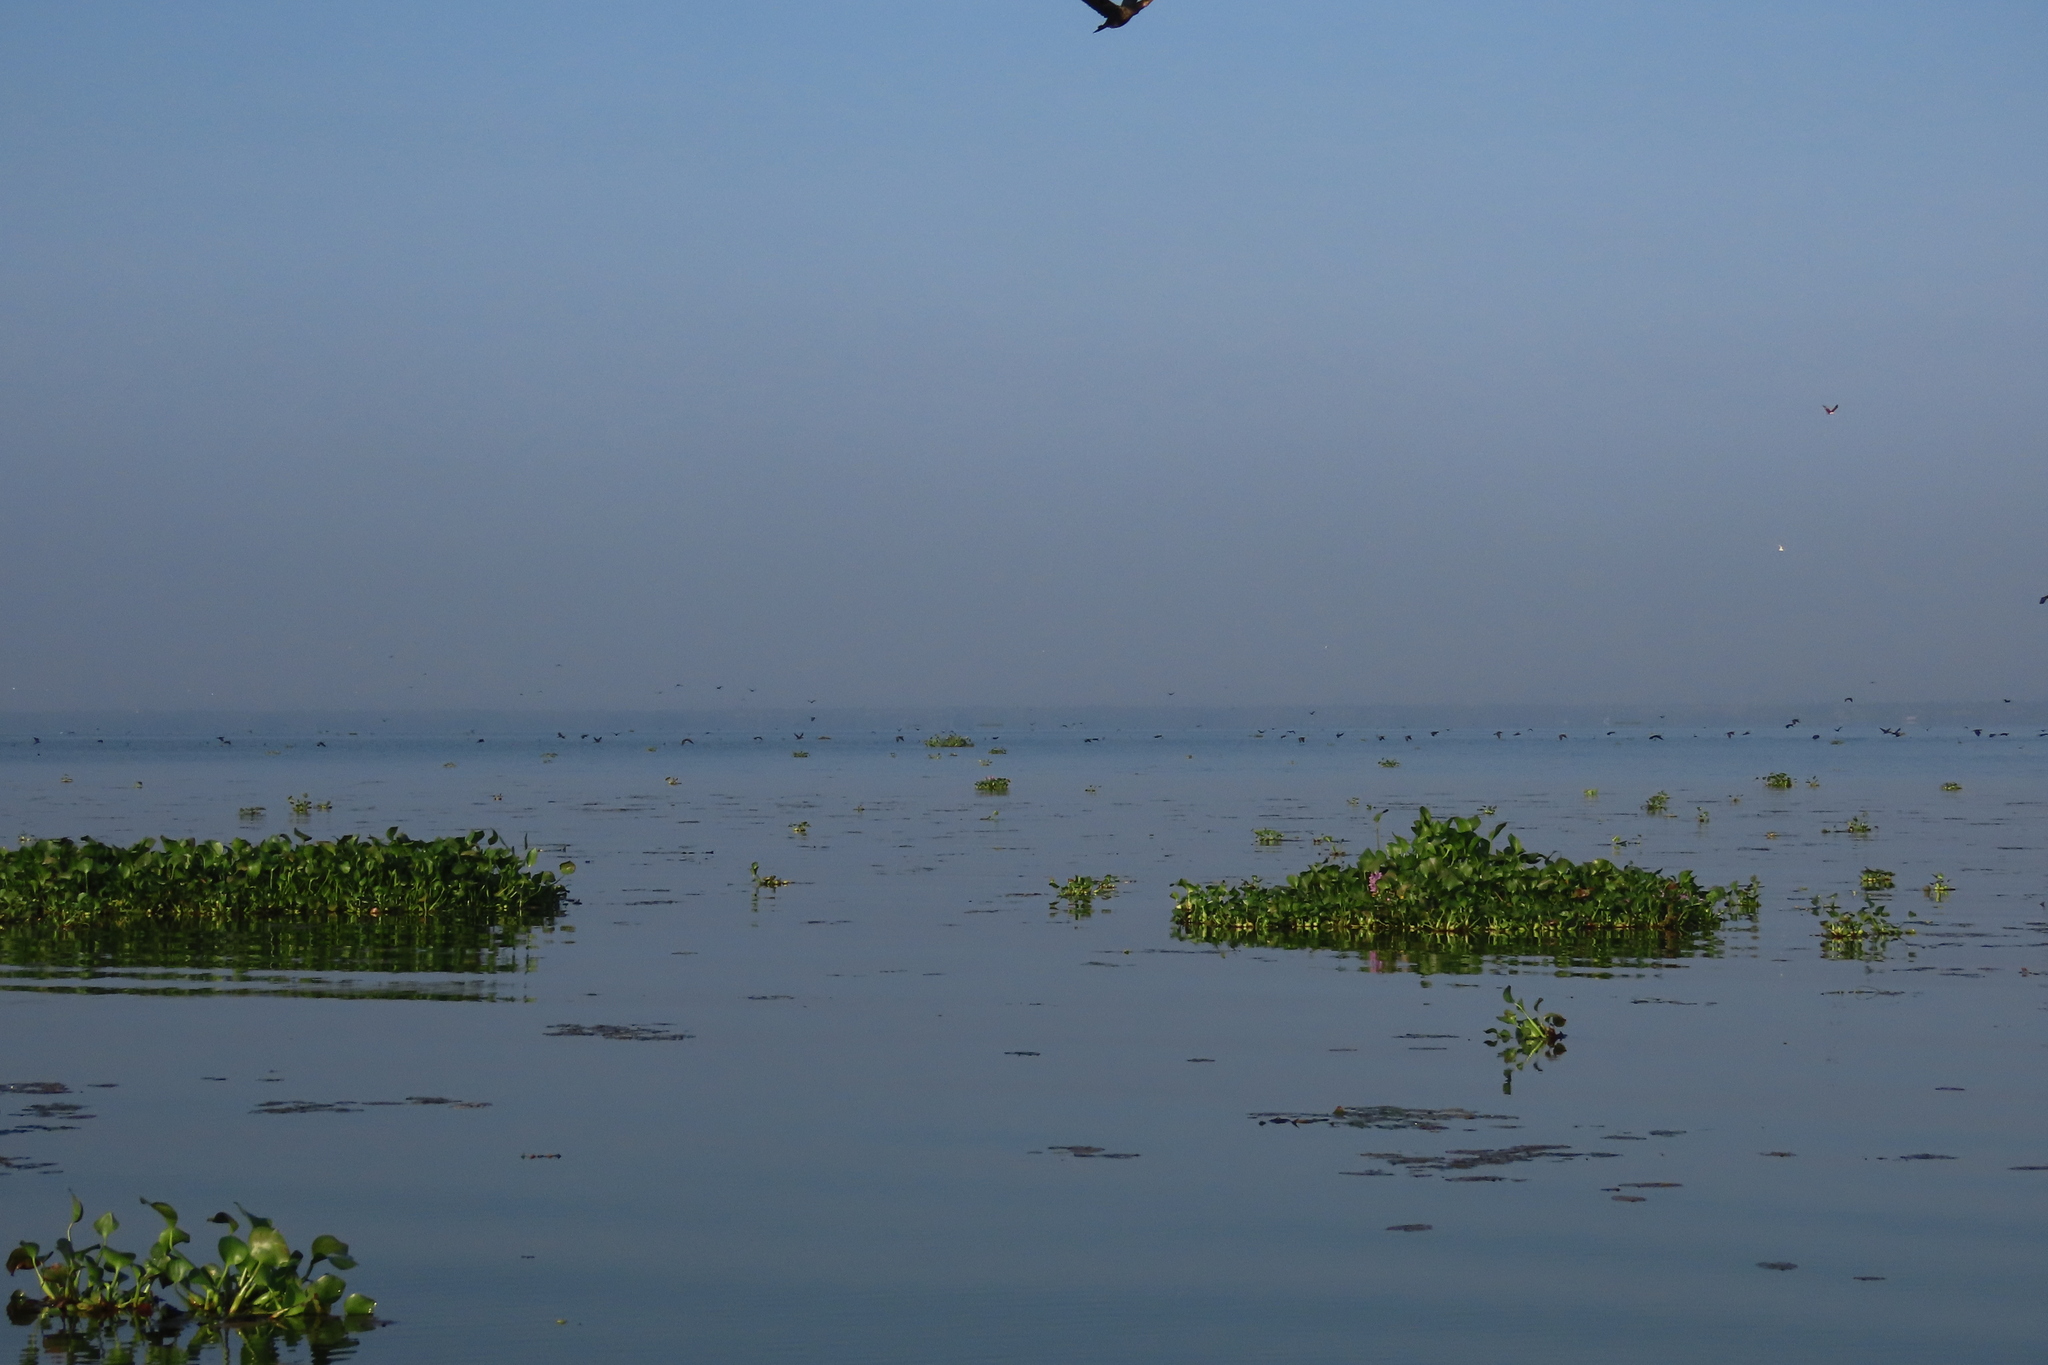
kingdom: Plantae
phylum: Tracheophyta
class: Liliopsida
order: Commelinales
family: Pontederiaceae
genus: Pontederia
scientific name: Pontederia crassipes
